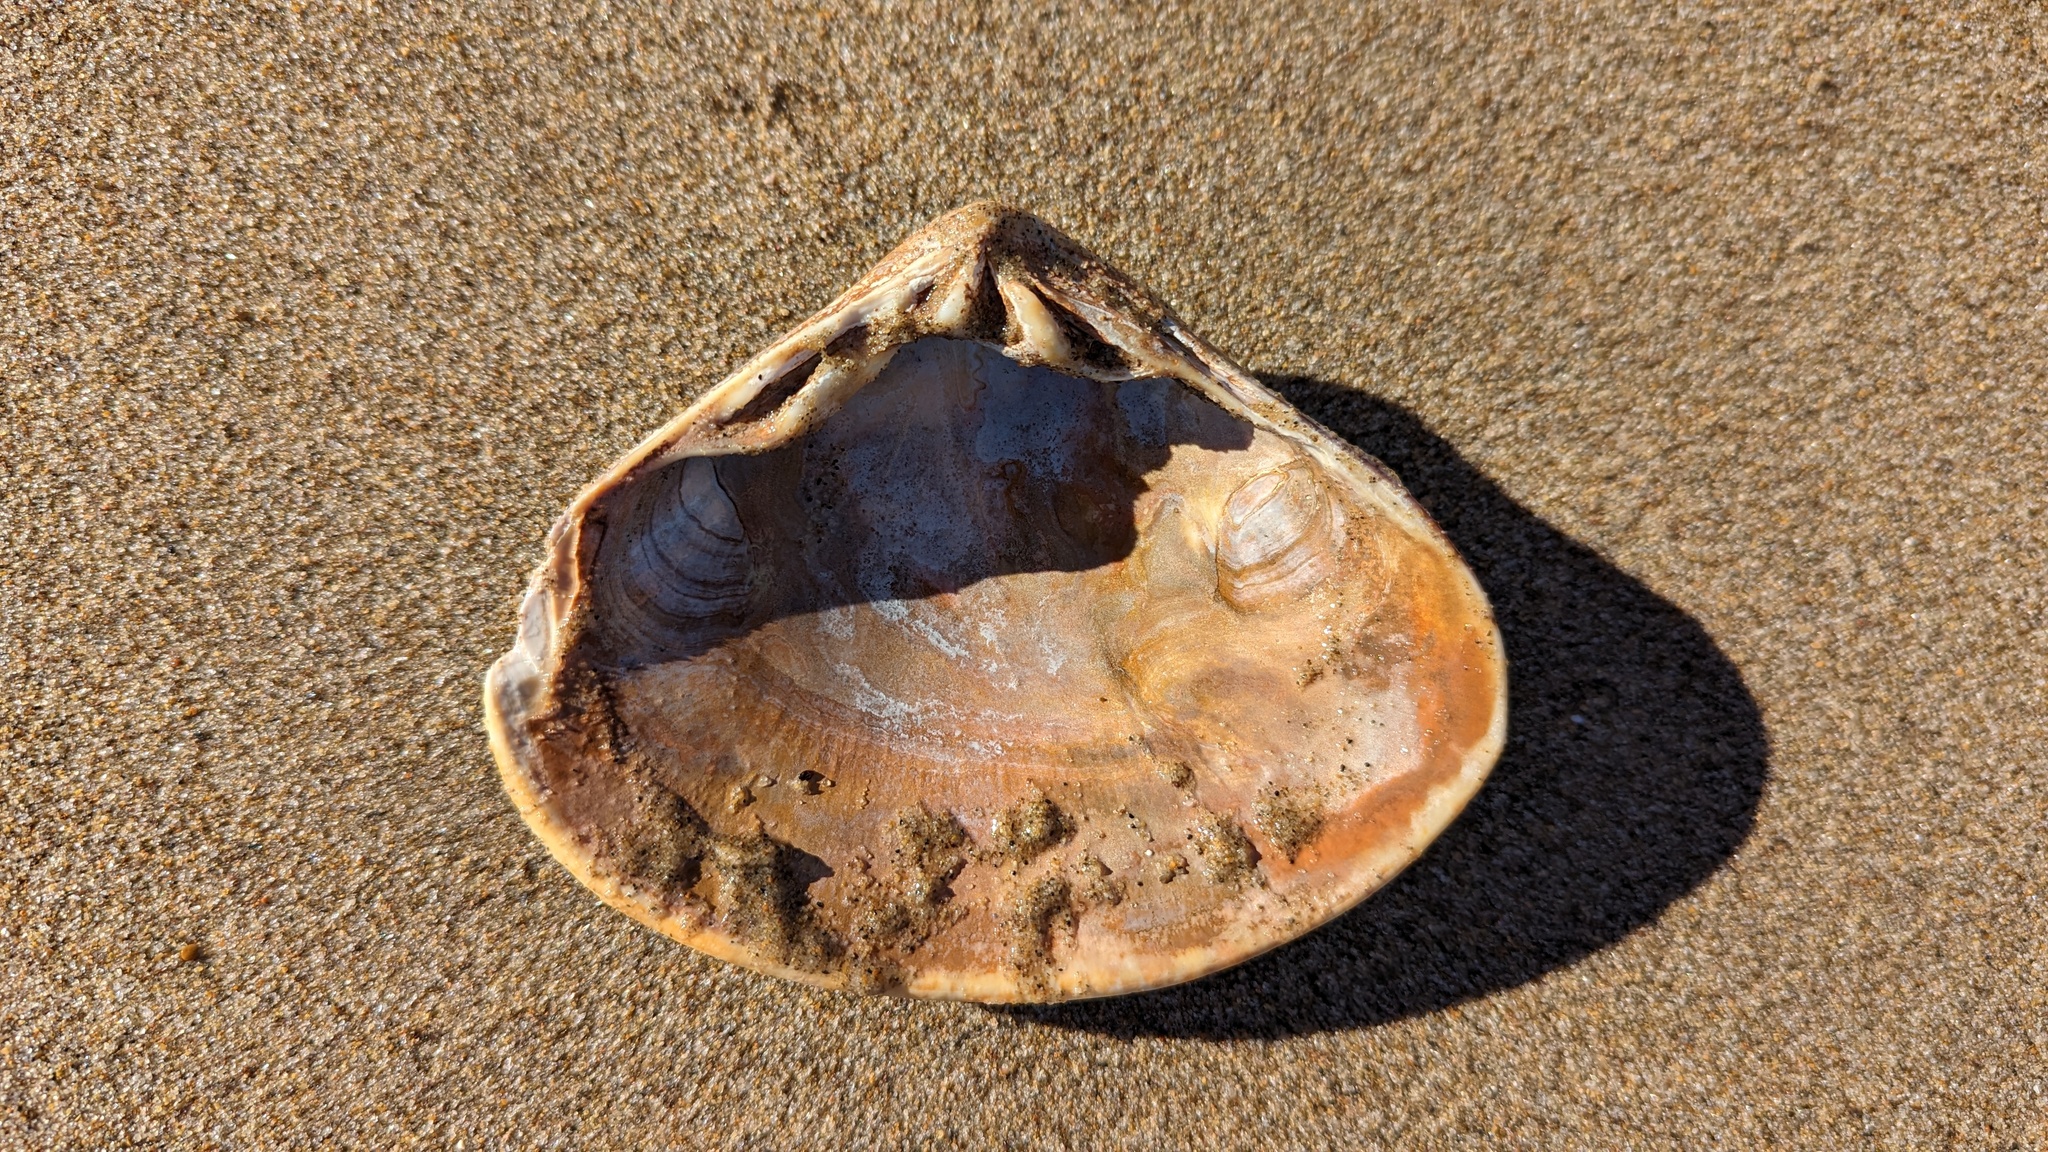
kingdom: Animalia
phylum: Mollusca
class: Bivalvia
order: Venerida
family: Veneridae
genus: Tivela
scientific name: Tivela stultorum
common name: Pismo clam
